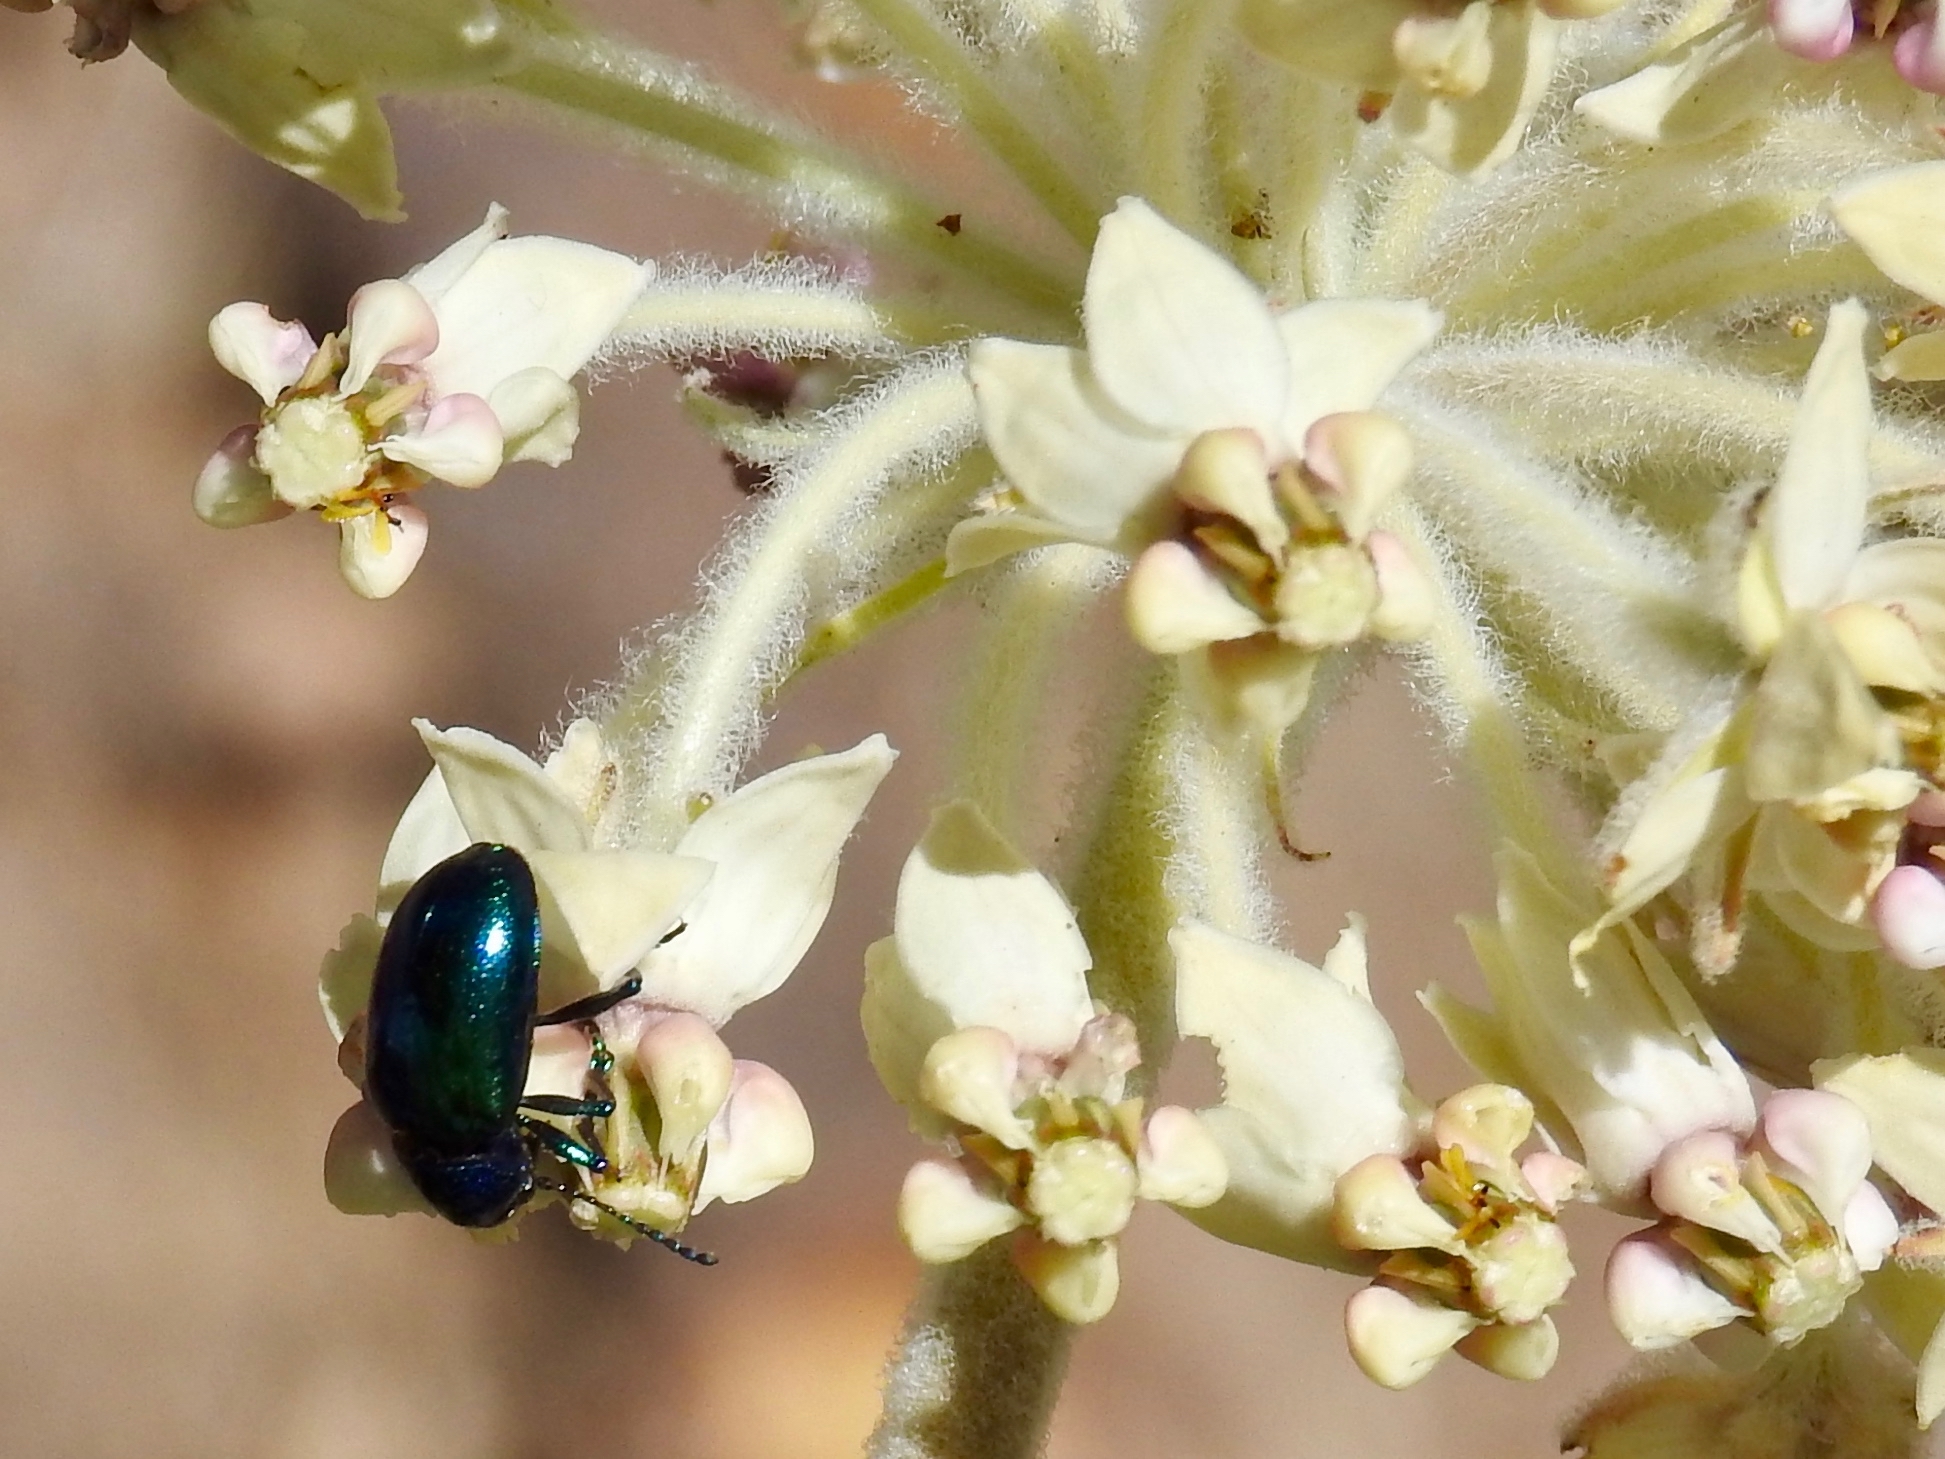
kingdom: Animalia
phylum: Arthropoda
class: Insecta
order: Coleoptera
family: Chrysomelidae
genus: Chrysochus
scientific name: Chrysochus cobaltinus
